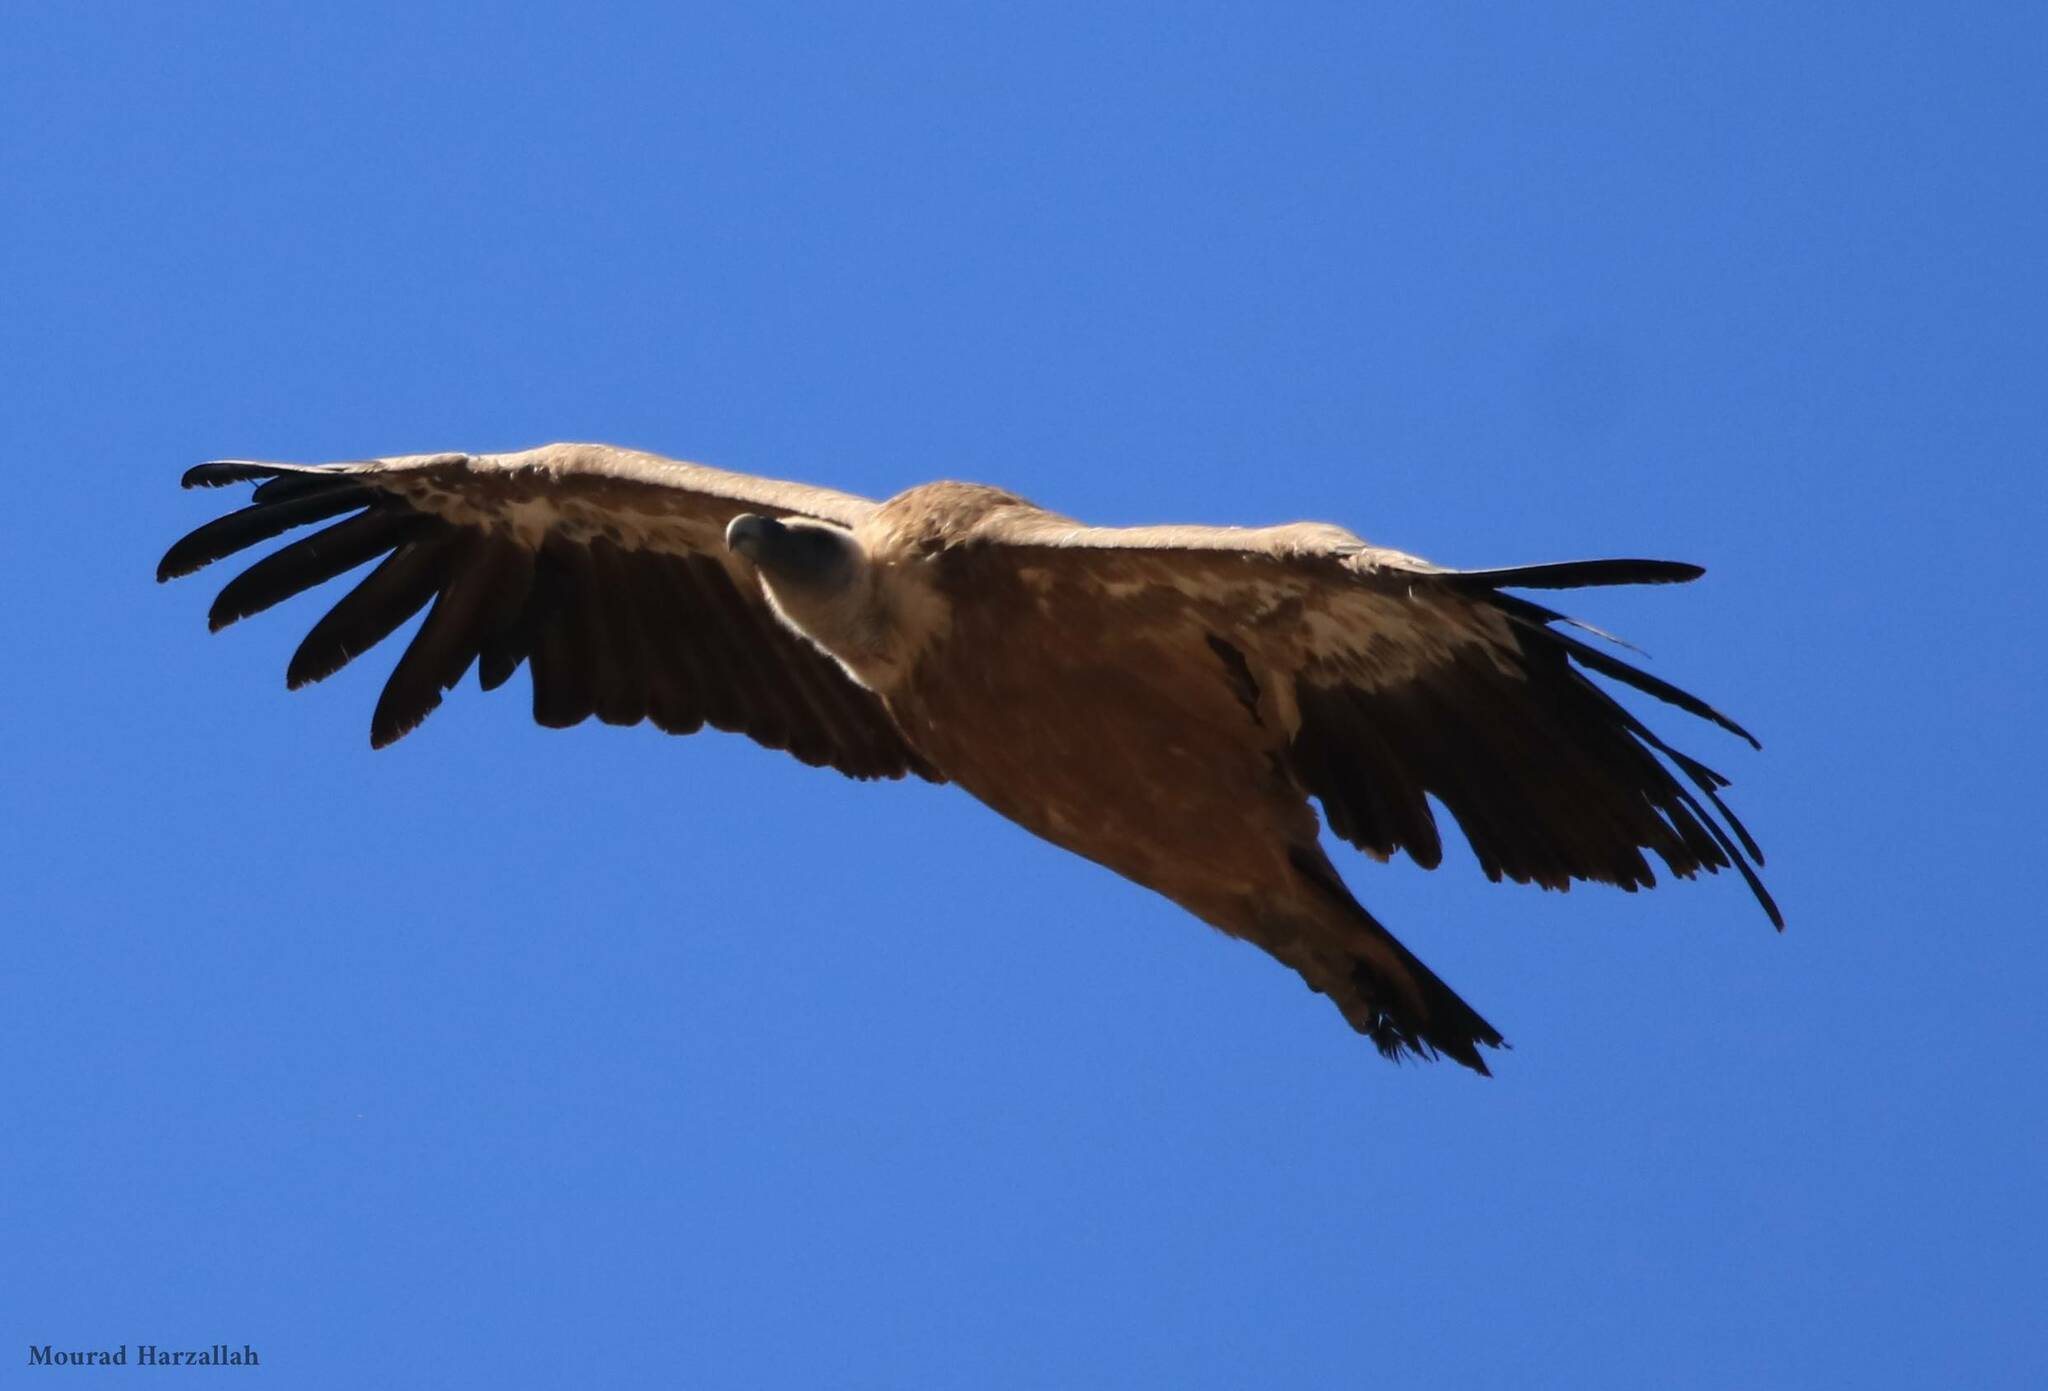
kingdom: Animalia
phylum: Chordata
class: Aves
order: Accipitriformes
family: Accipitridae
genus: Gyps
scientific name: Gyps fulvus
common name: Griffon vulture
